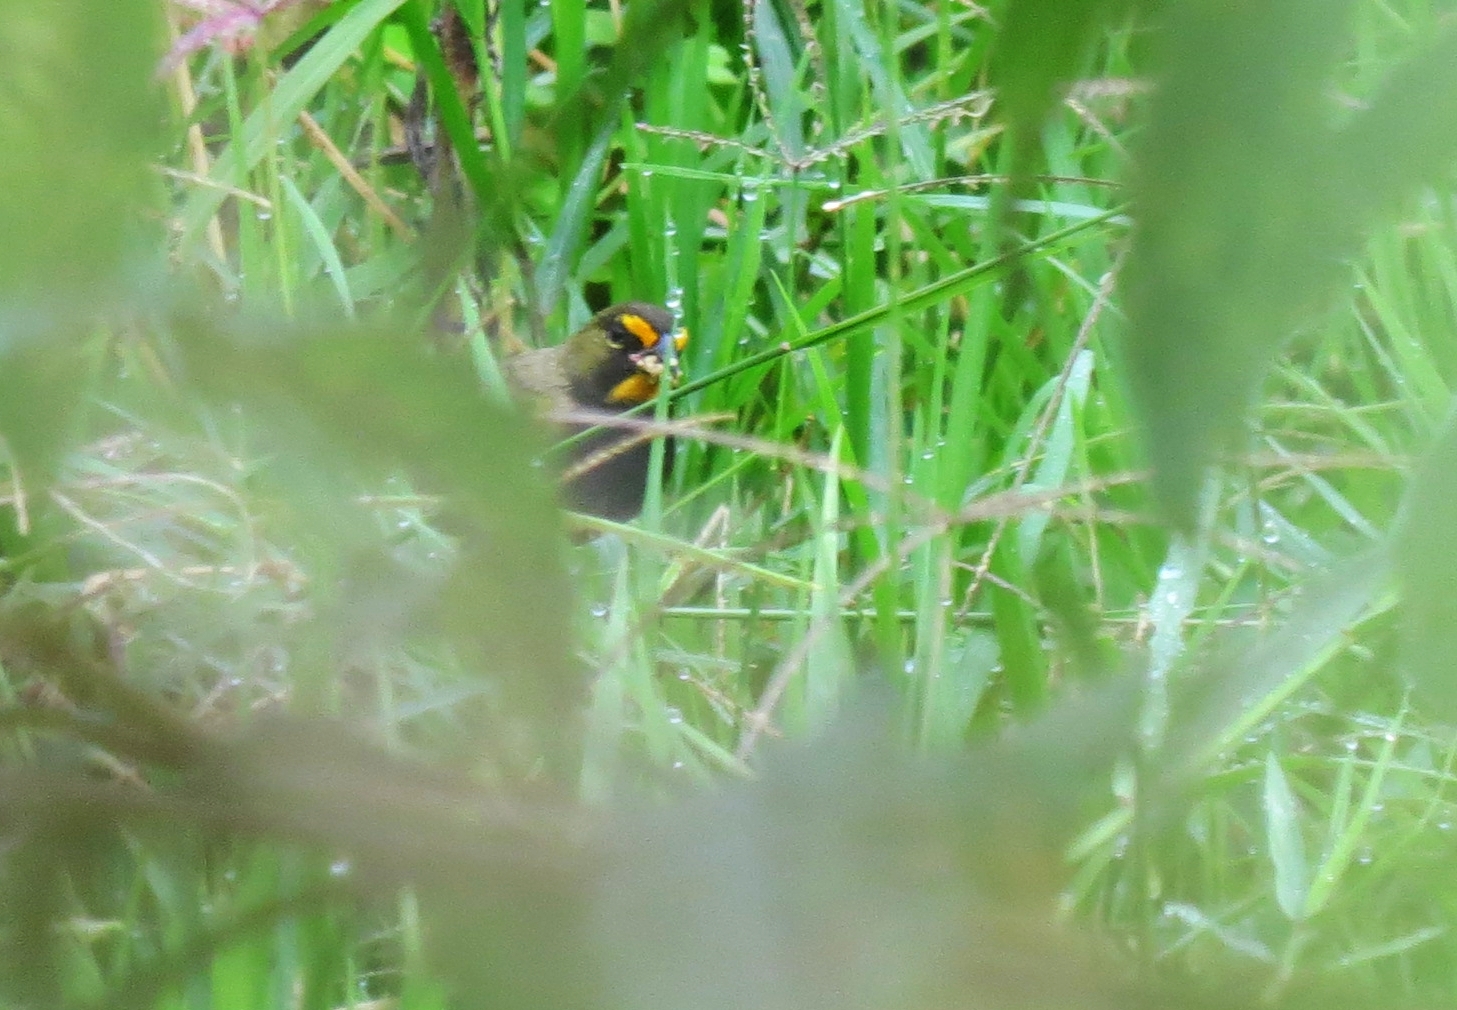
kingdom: Animalia
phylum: Chordata
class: Aves
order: Passeriformes
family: Thraupidae
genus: Tiaris
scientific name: Tiaris olivaceus
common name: Yellow-faced grassquit
